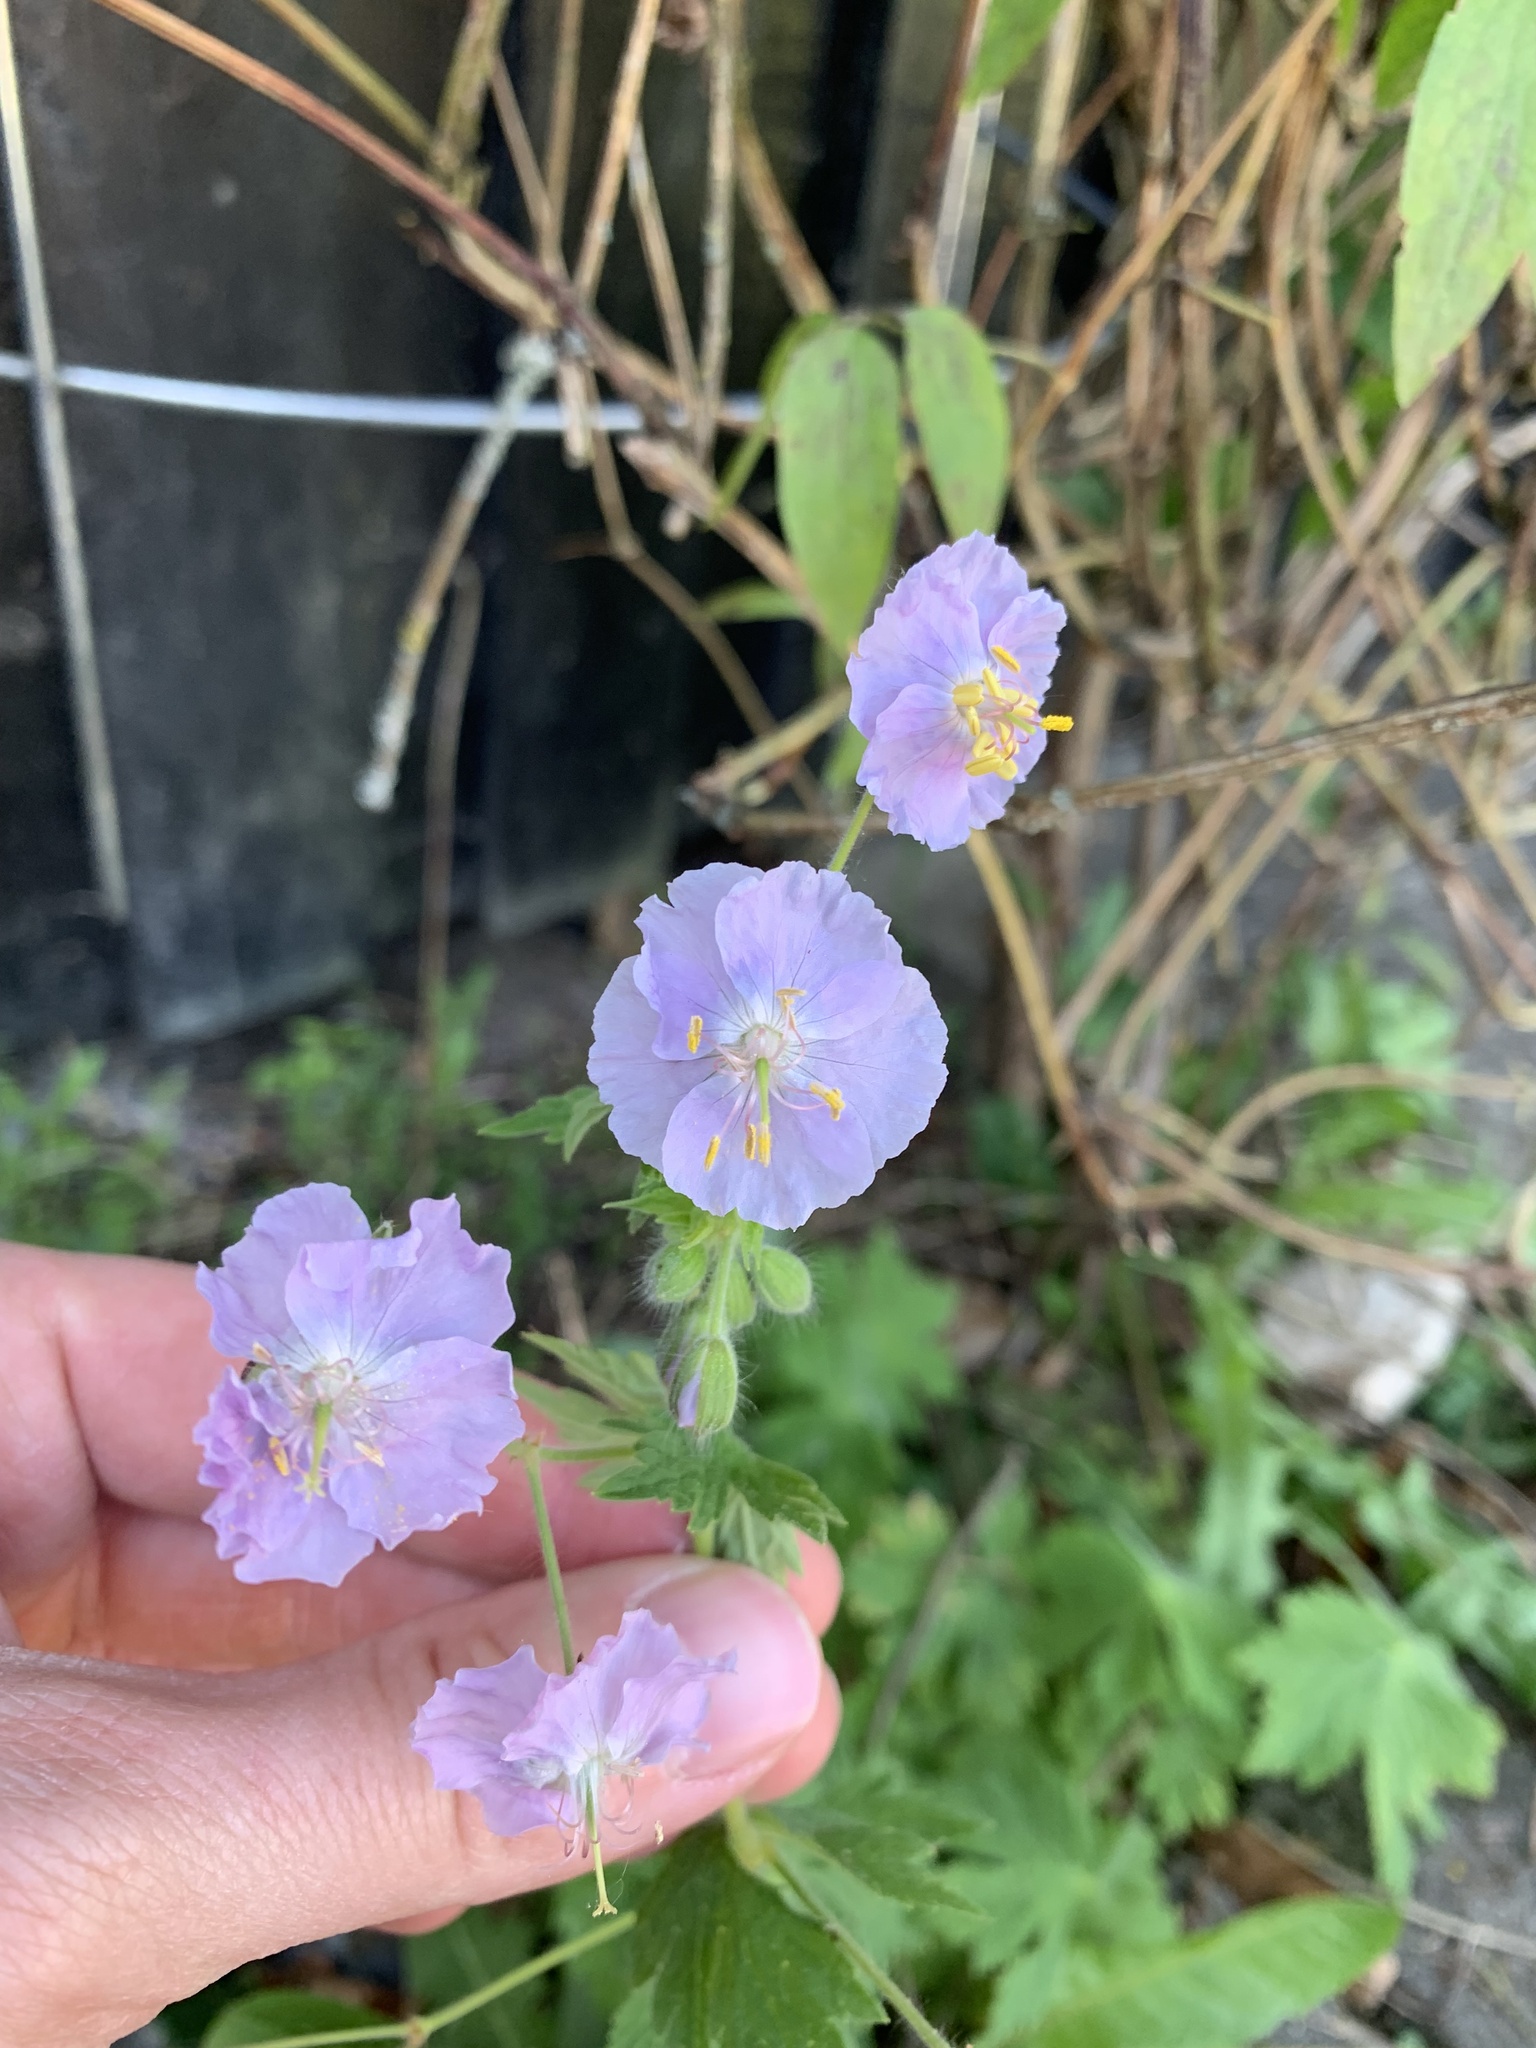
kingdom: Plantae
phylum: Tracheophyta
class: Magnoliopsida
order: Geraniales
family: Geraniaceae
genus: Geranium
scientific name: Geranium phaeum
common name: Dusky crane's-bill
